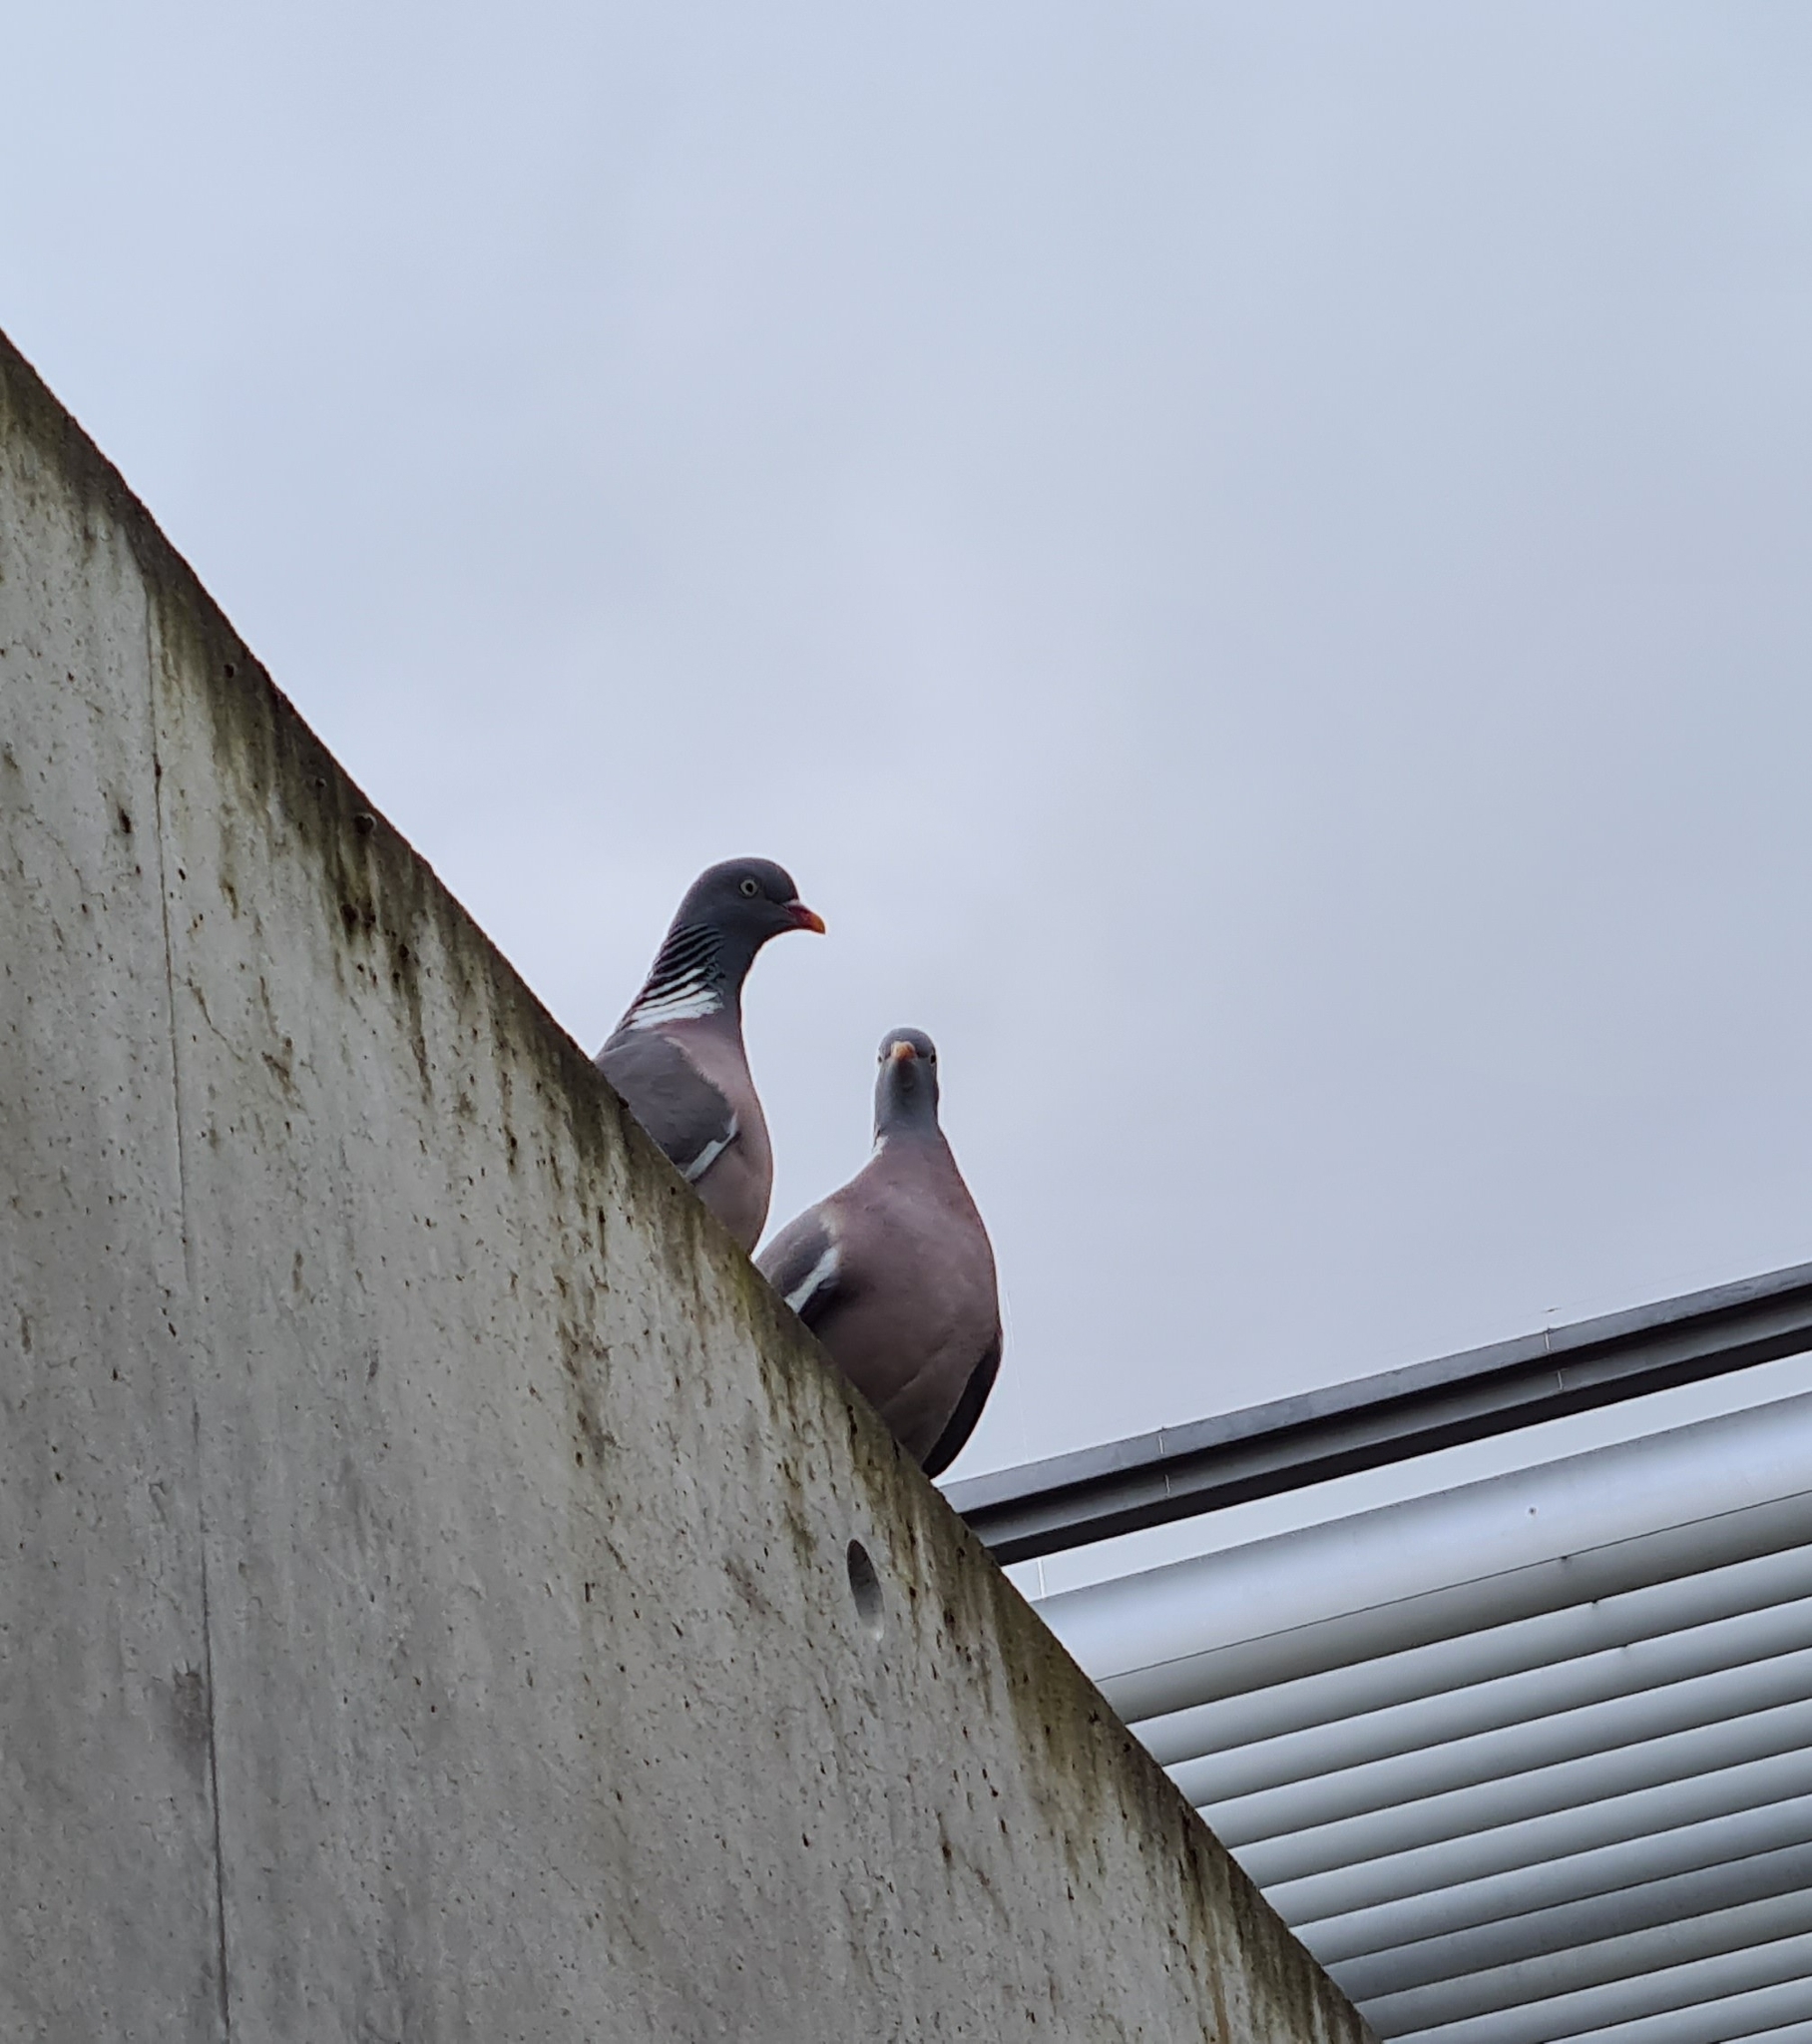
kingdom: Animalia
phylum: Chordata
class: Aves
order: Columbiformes
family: Columbidae
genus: Columba
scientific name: Columba palumbus
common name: Common wood pigeon
